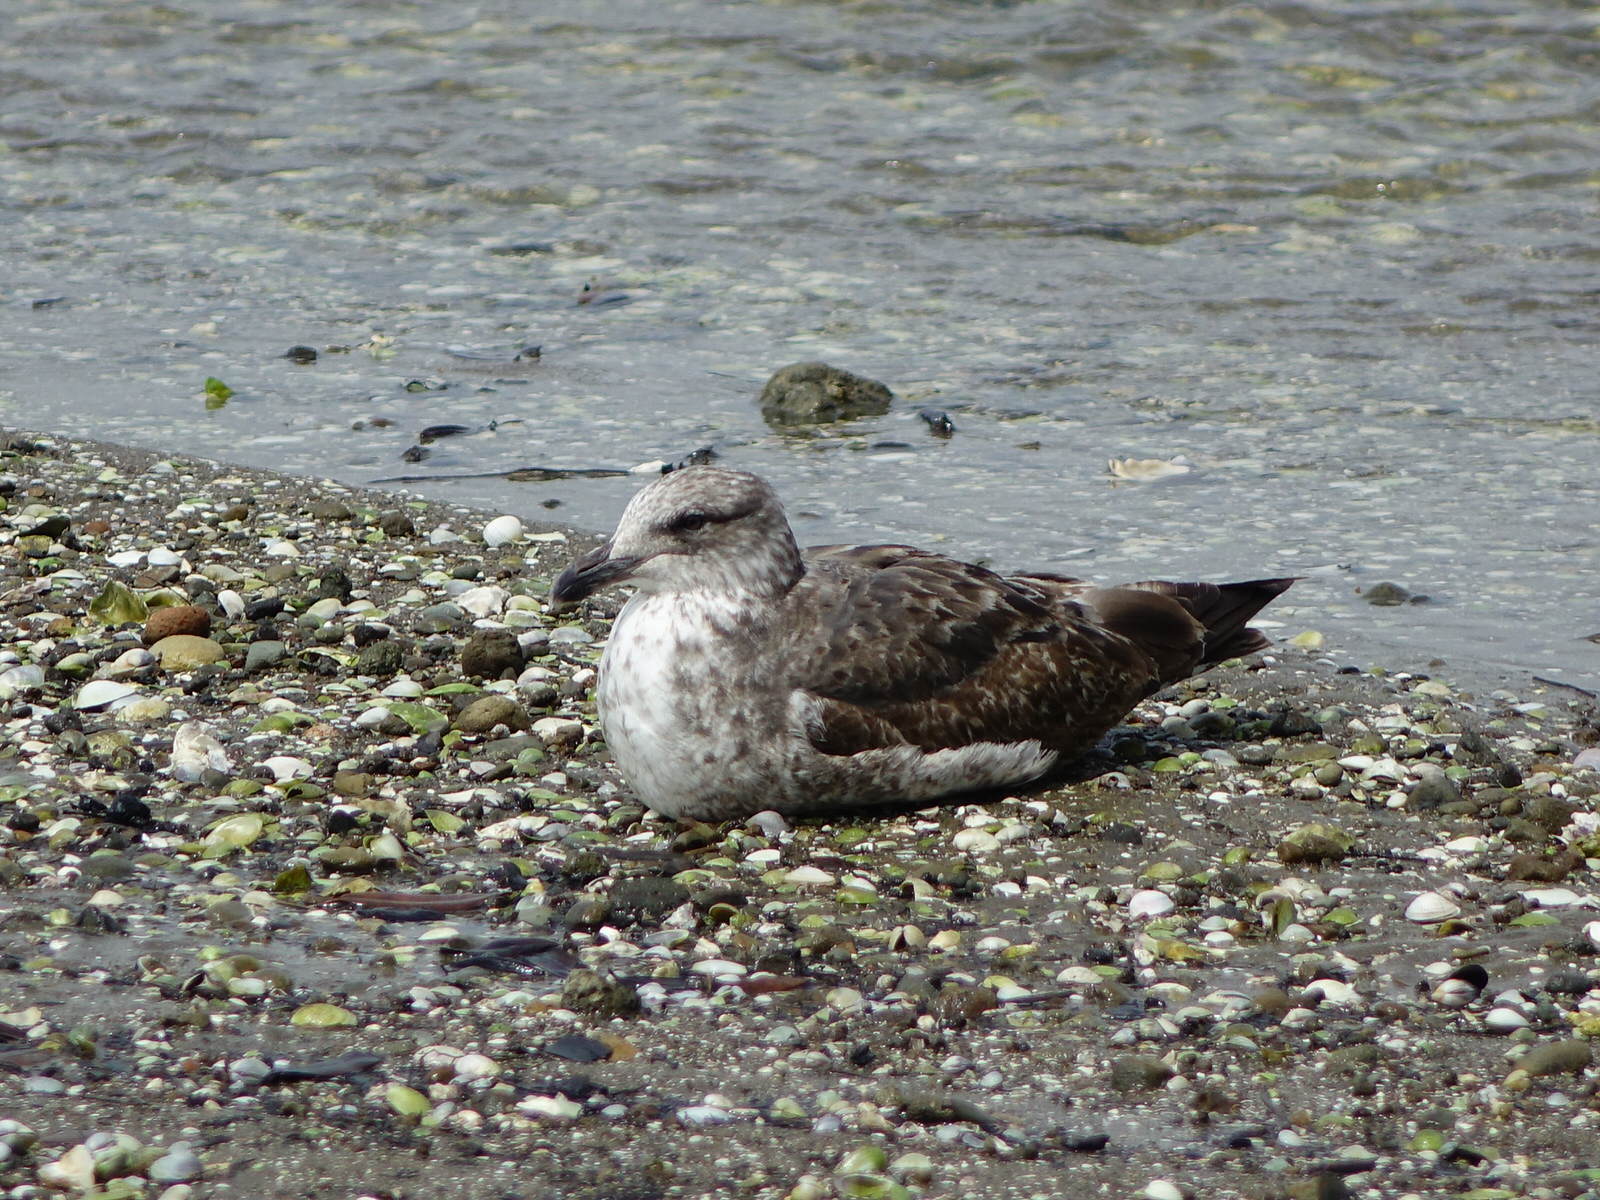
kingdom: Animalia
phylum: Chordata
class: Aves
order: Charadriiformes
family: Laridae
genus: Larus
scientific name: Larus dominicanus
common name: Kelp gull
